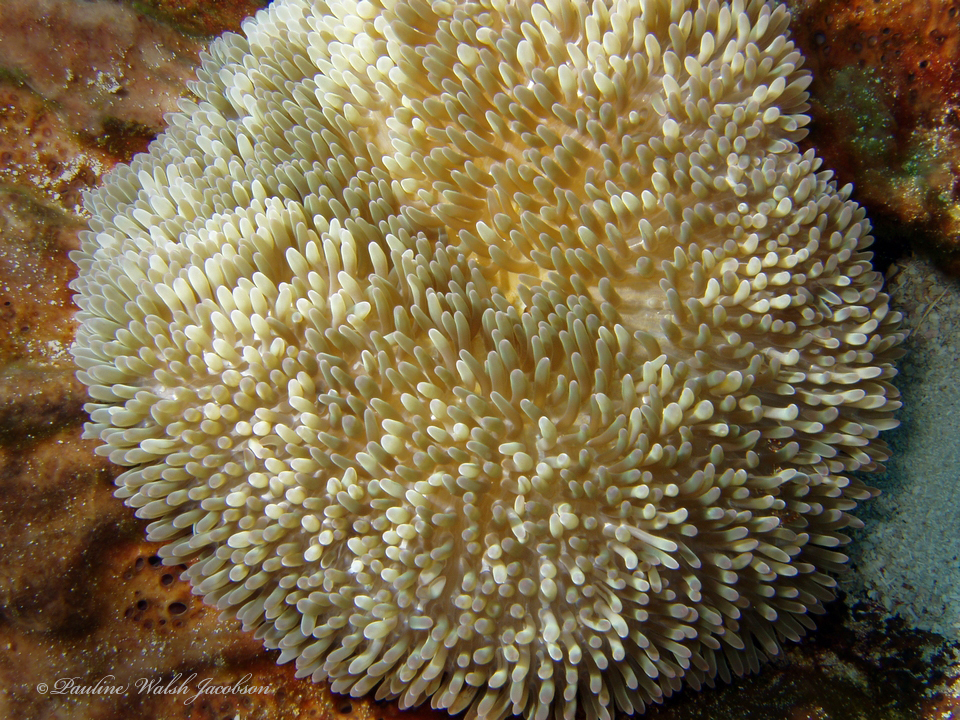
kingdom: Animalia
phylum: Cnidaria
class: Anthozoa
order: Actiniaria
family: Stichodactylidae
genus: Stichodactyla
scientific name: Stichodactyla helianthus
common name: Sun anemone
